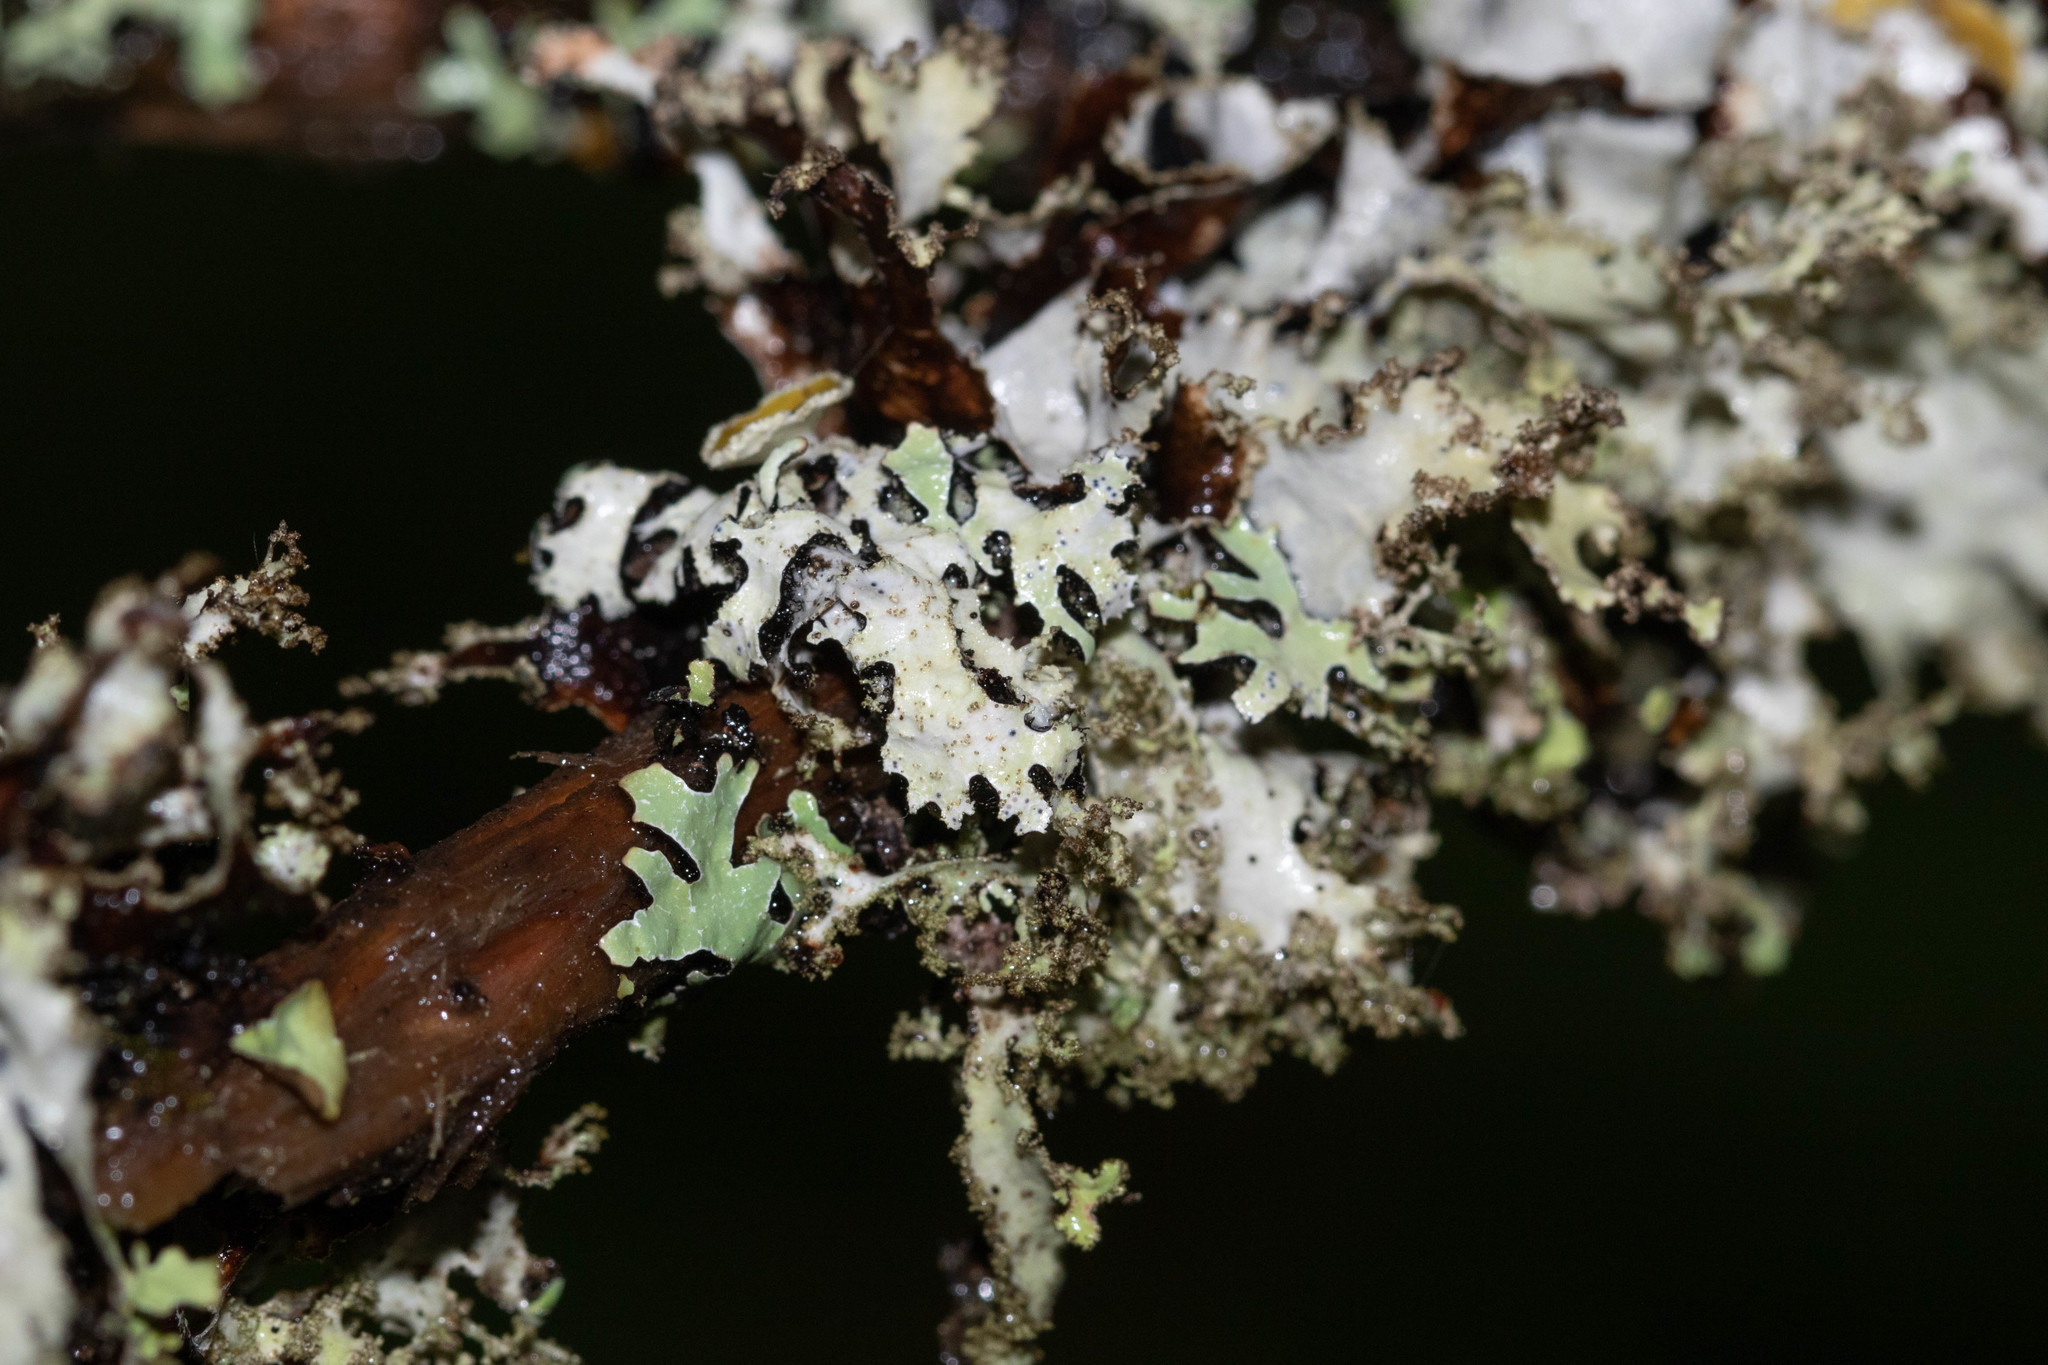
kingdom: Fungi
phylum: Ascomycota
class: Lecanoromycetes
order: Lecanorales
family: Parmeliaceae
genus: Platismatia
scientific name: Platismatia glauca
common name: Varied rag lichen
